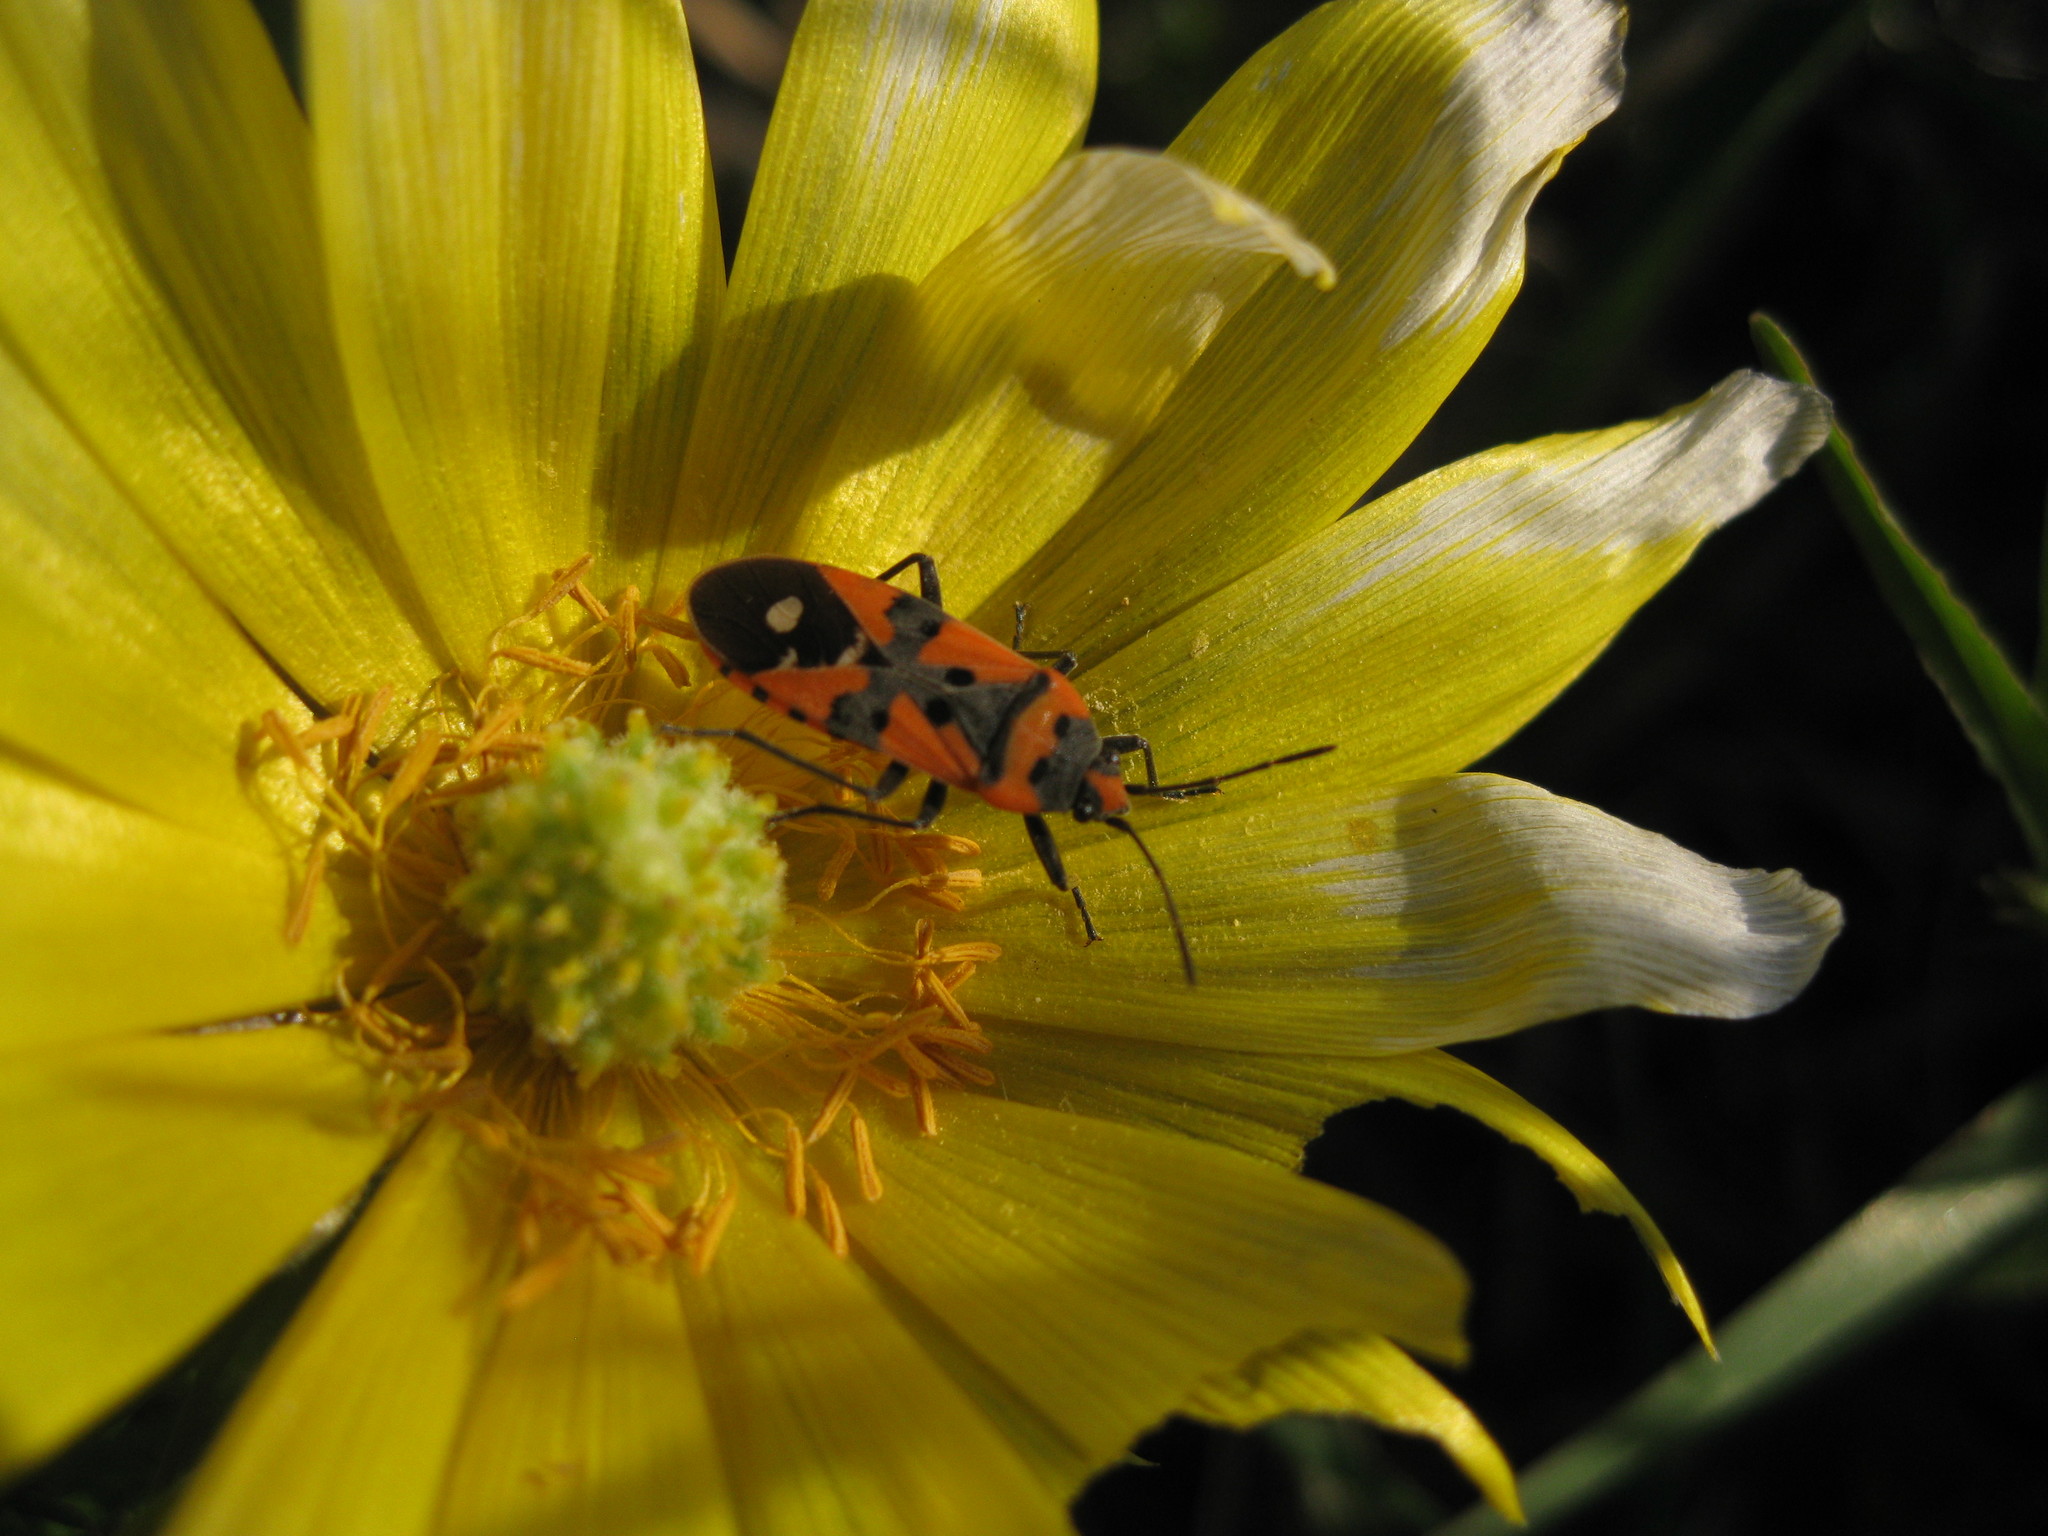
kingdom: Animalia
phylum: Arthropoda
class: Insecta
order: Hemiptera
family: Lygaeidae
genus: Lygaeus
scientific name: Lygaeus equestris
